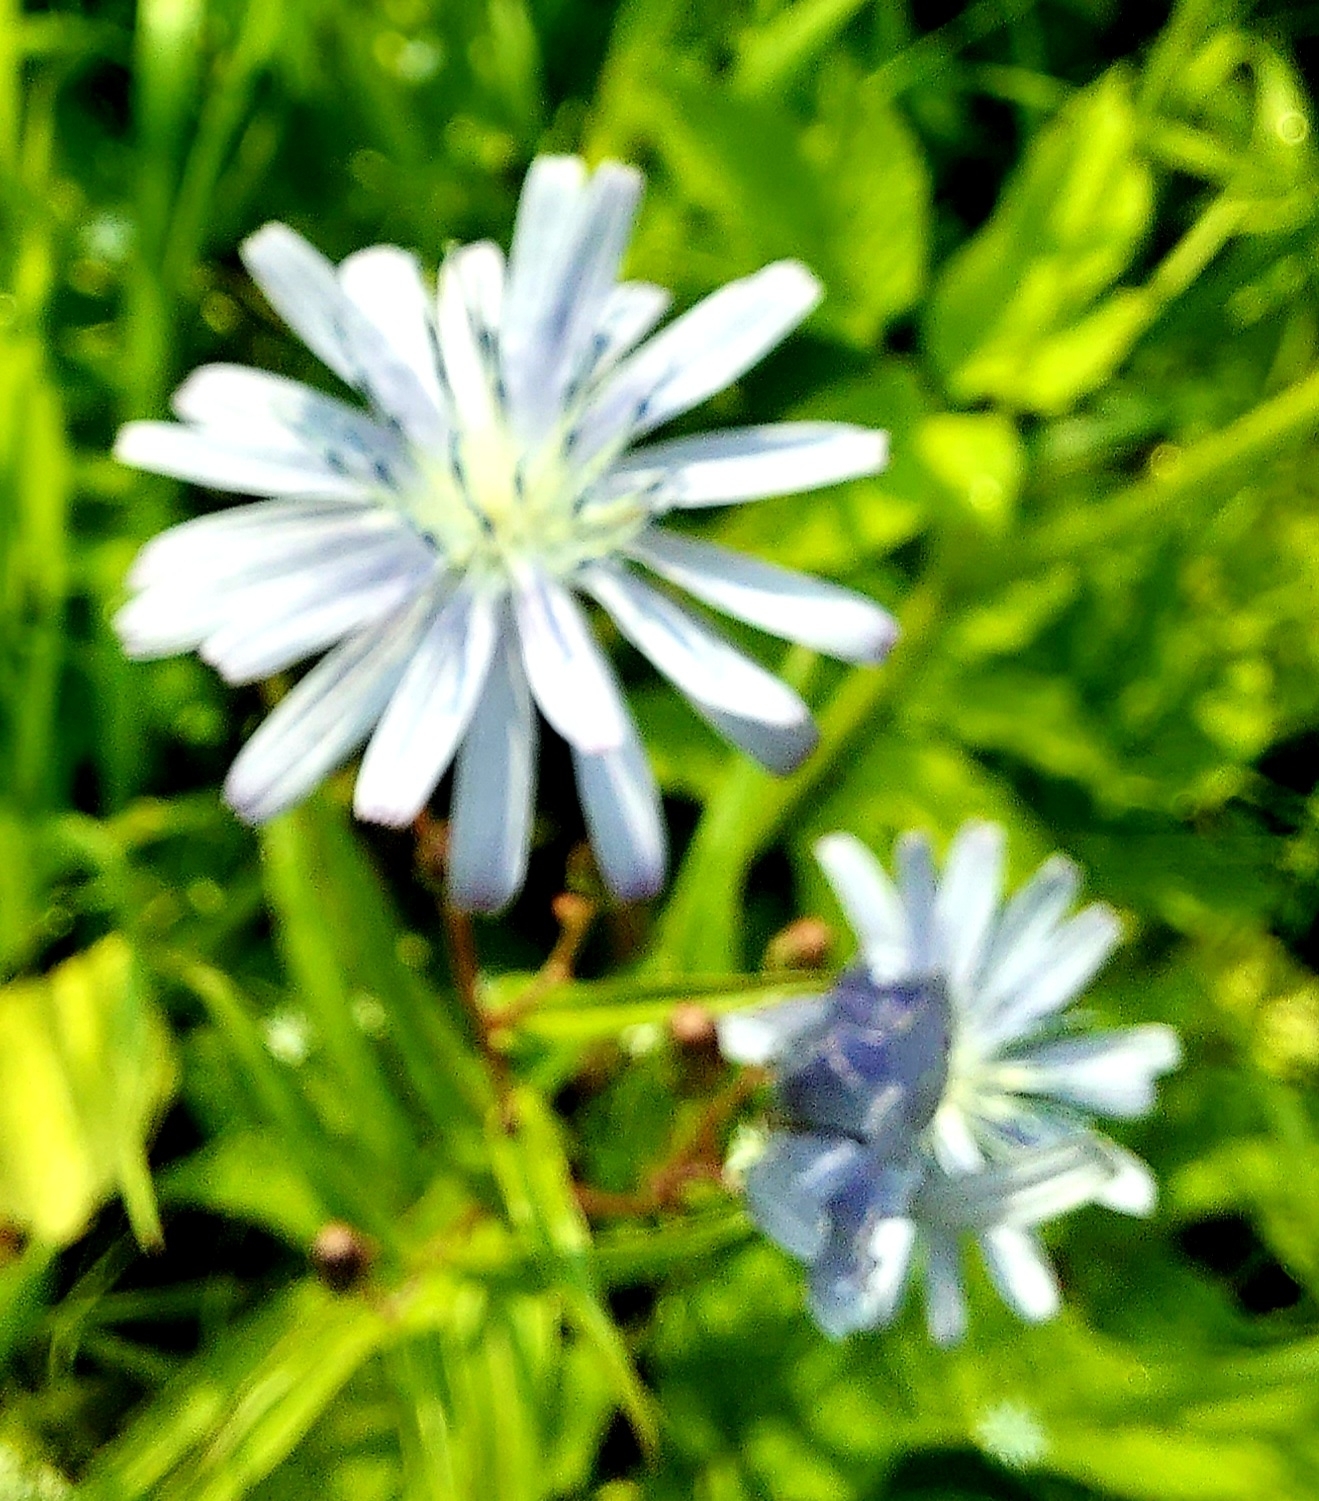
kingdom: Plantae
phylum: Tracheophyta
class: Magnoliopsida
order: Asterales
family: Asteraceae
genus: Cichorium
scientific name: Cichorium intybus
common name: Chicory
